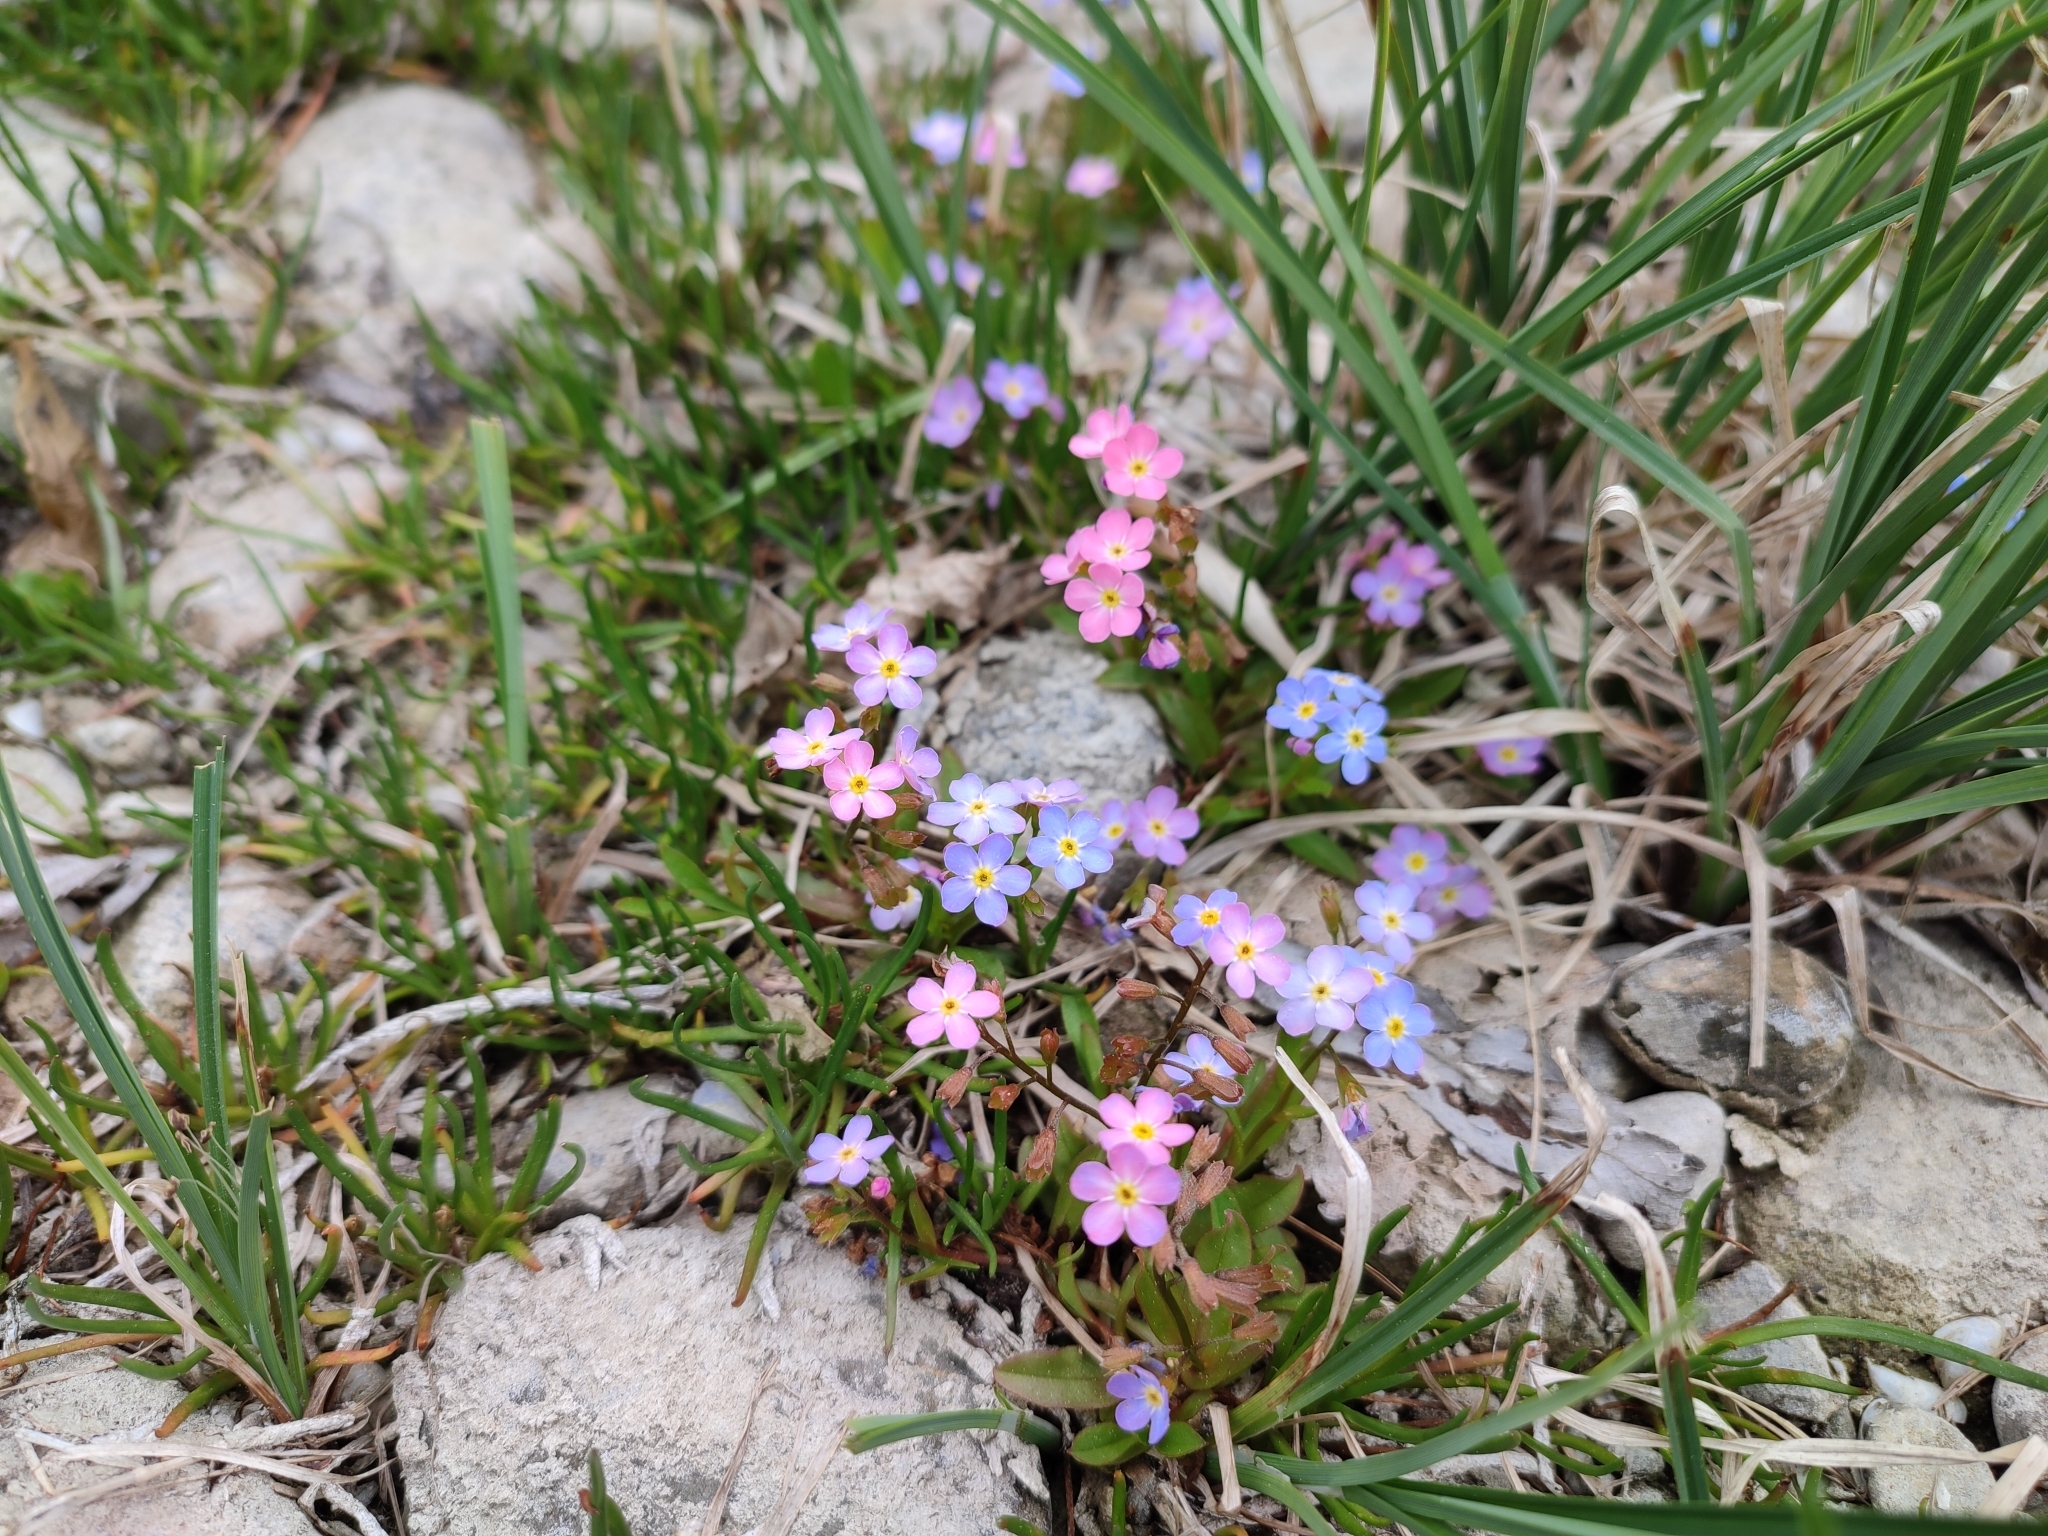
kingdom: Plantae
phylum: Tracheophyta
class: Magnoliopsida
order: Boraginales
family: Boraginaceae
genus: Myosotis
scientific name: Myosotis rehsteineri
